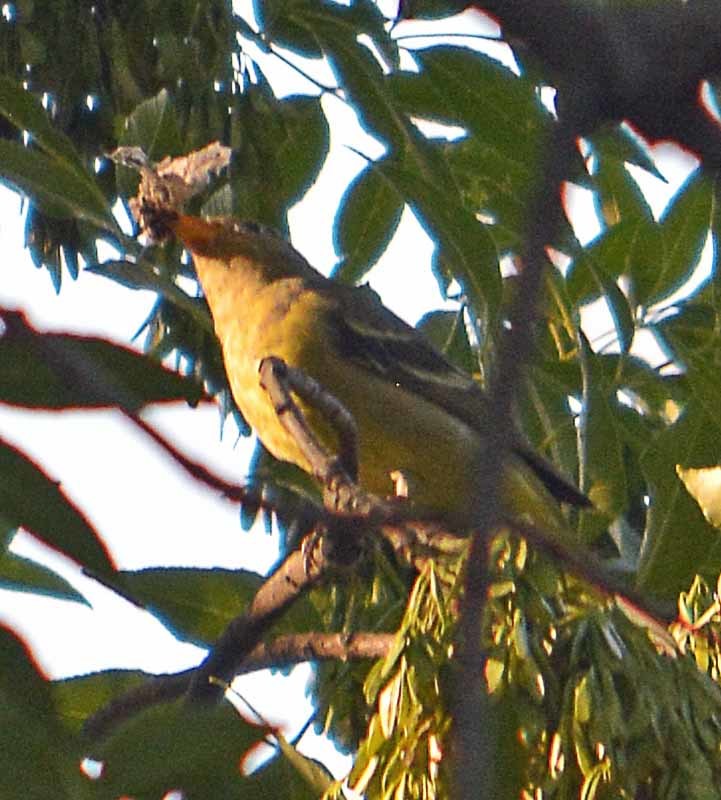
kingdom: Animalia
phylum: Chordata
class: Aves
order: Passeriformes
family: Cardinalidae
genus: Piranga
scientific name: Piranga ludoviciana
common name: Western tanager
